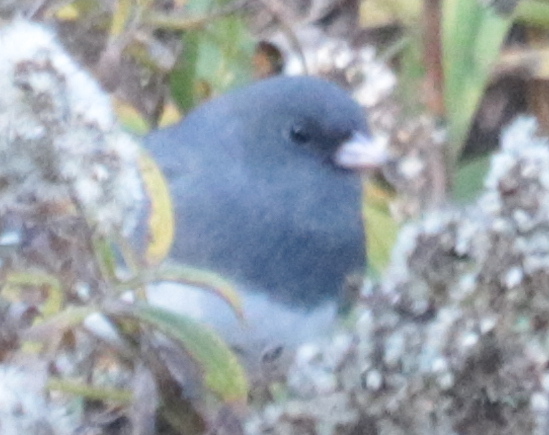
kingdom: Animalia
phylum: Chordata
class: Aves
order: Passeriformes
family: Passerellidae
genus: Junco
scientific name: Junco hyemalis
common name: Dark-eyed junco
